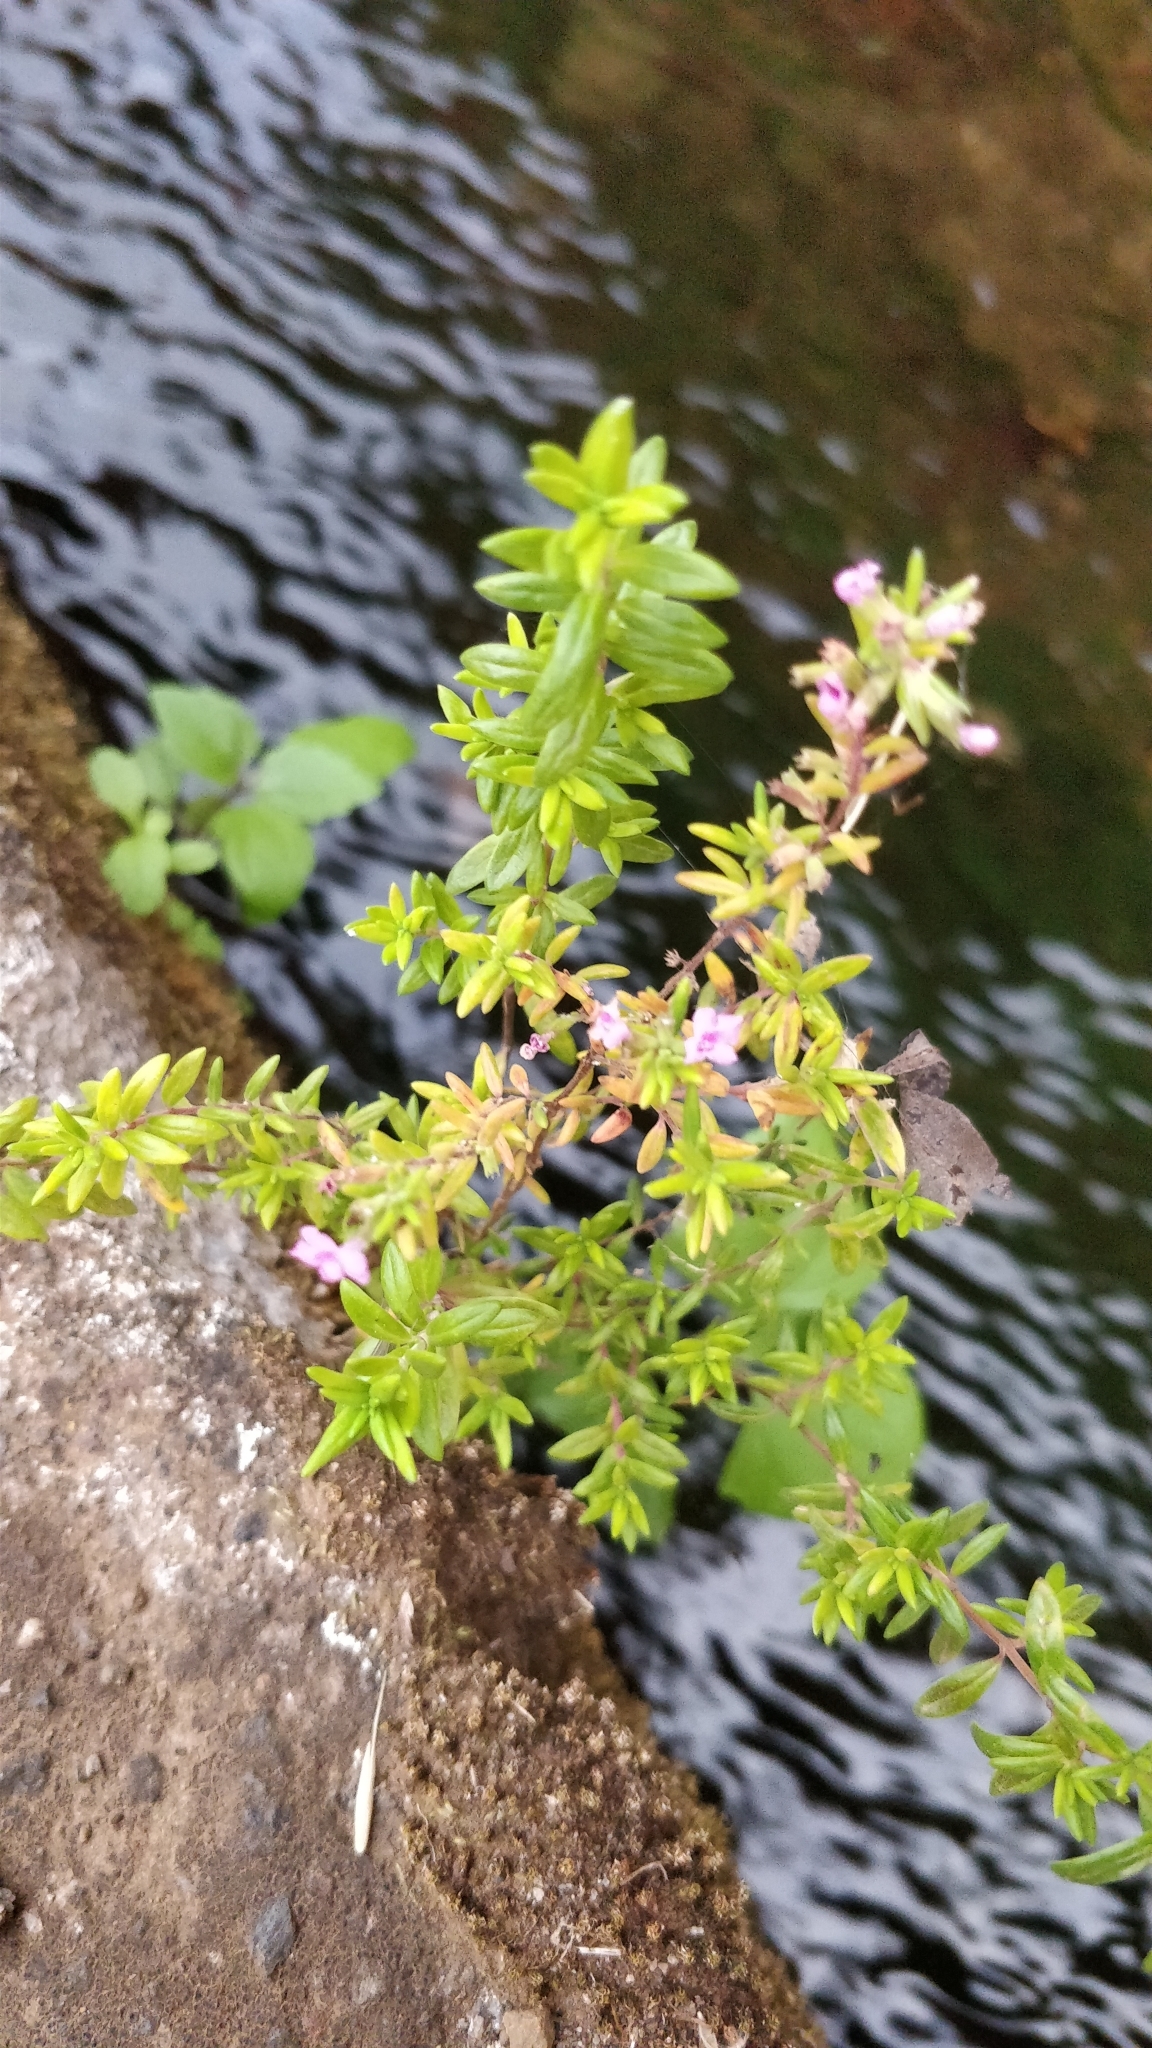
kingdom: Plantae
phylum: Tracheophyta
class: Magnoliopsida
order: Lamiales
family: Lamiaceae
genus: Micromeria
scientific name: Micromeria maderensis
